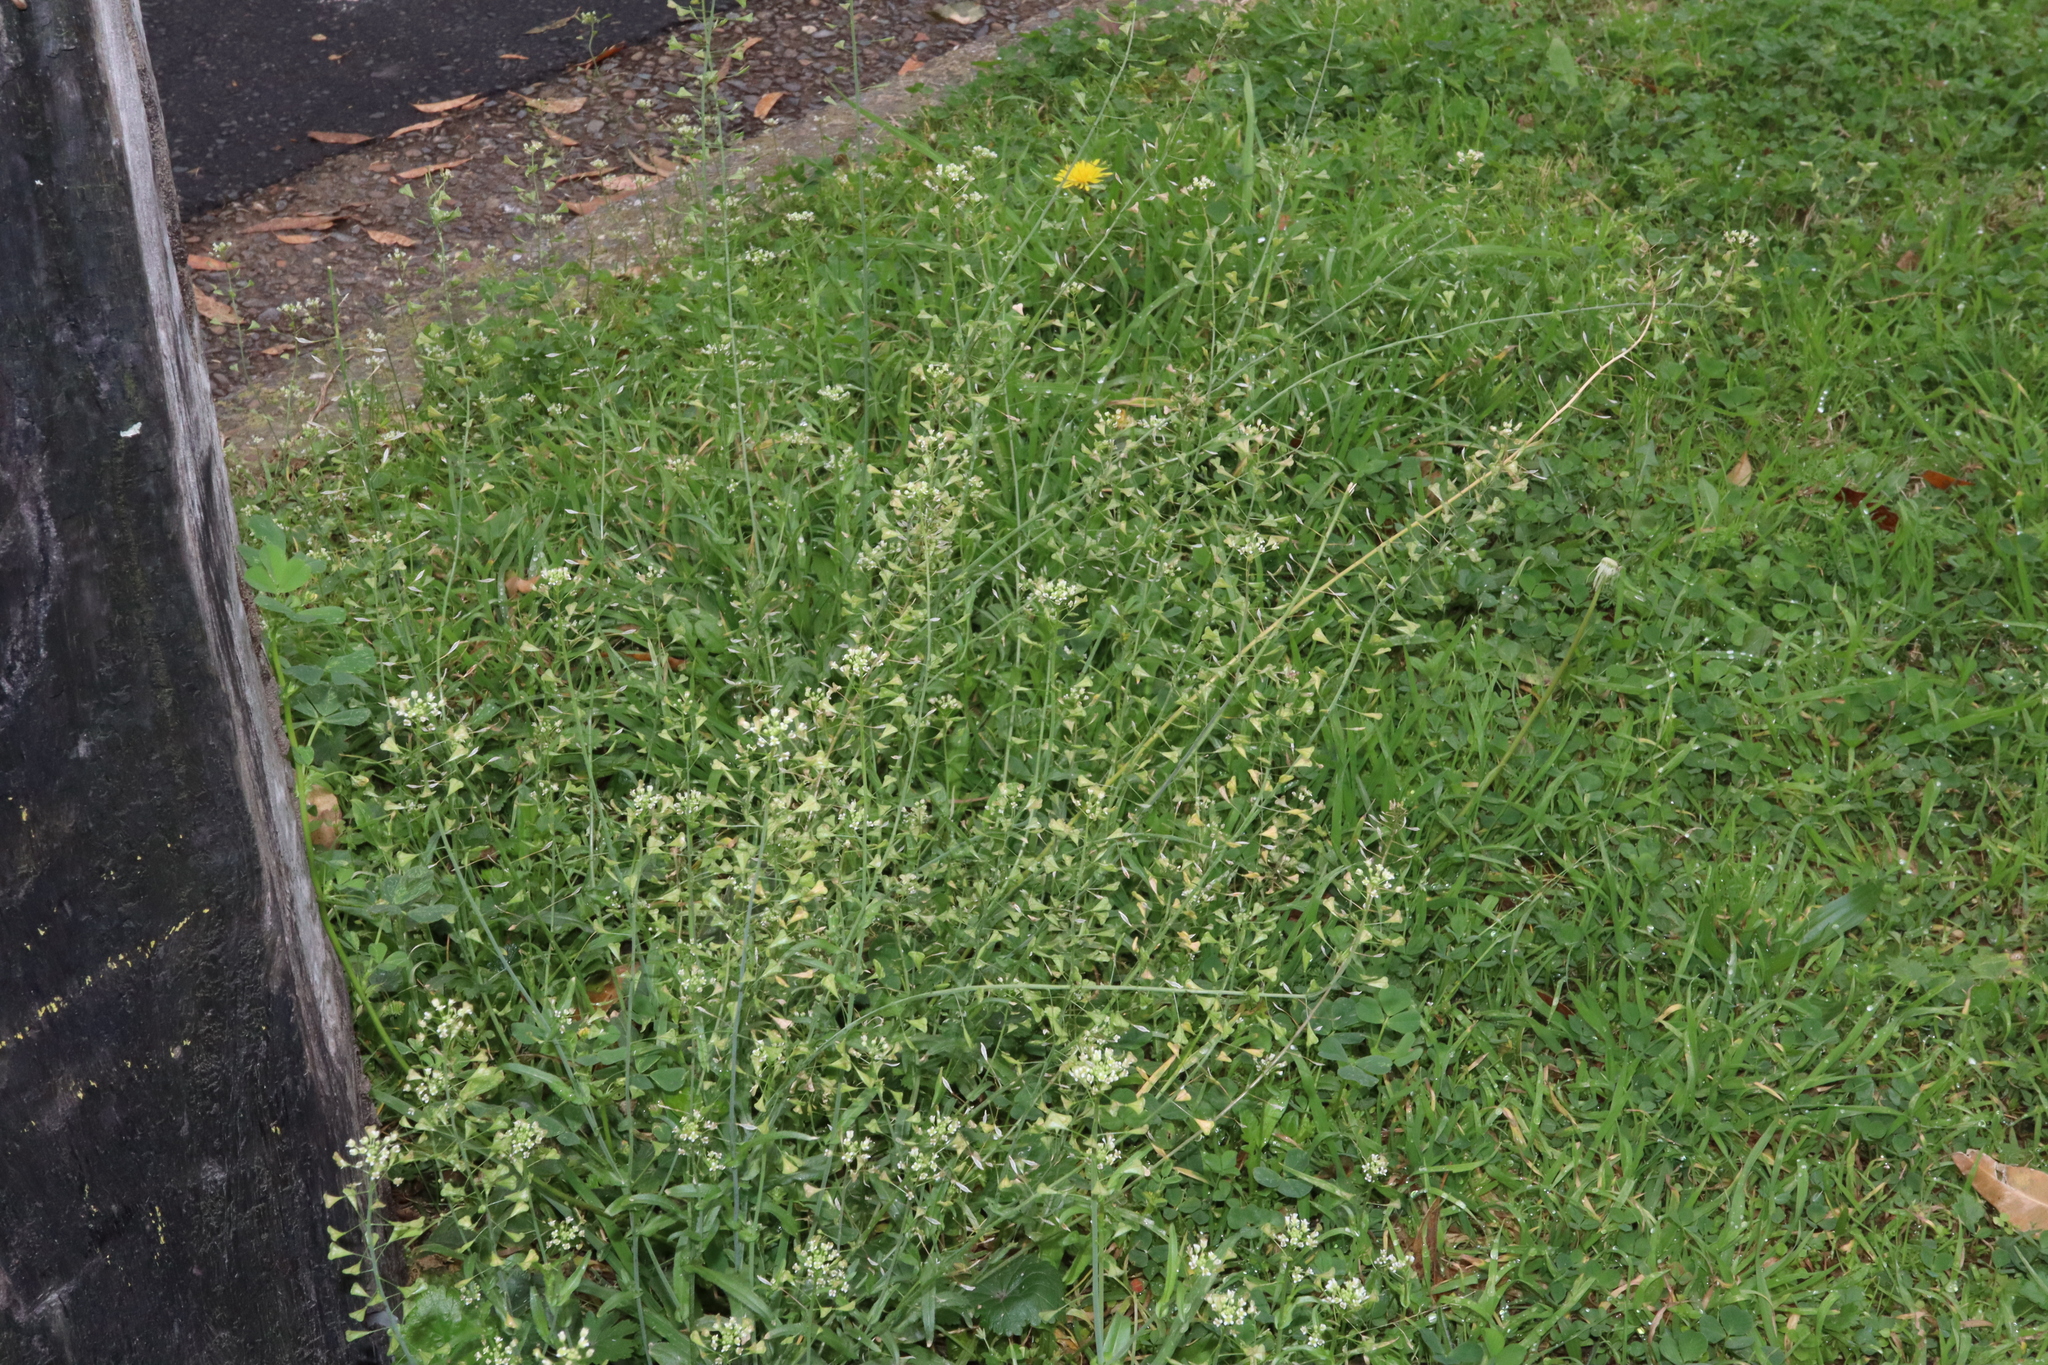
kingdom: Plantae
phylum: Tracheophyta
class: Magnoliopsida
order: Brassicales
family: Brassicaceae
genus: Capsella
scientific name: Capsella bursa-pastoris
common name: Shepherd's purse
